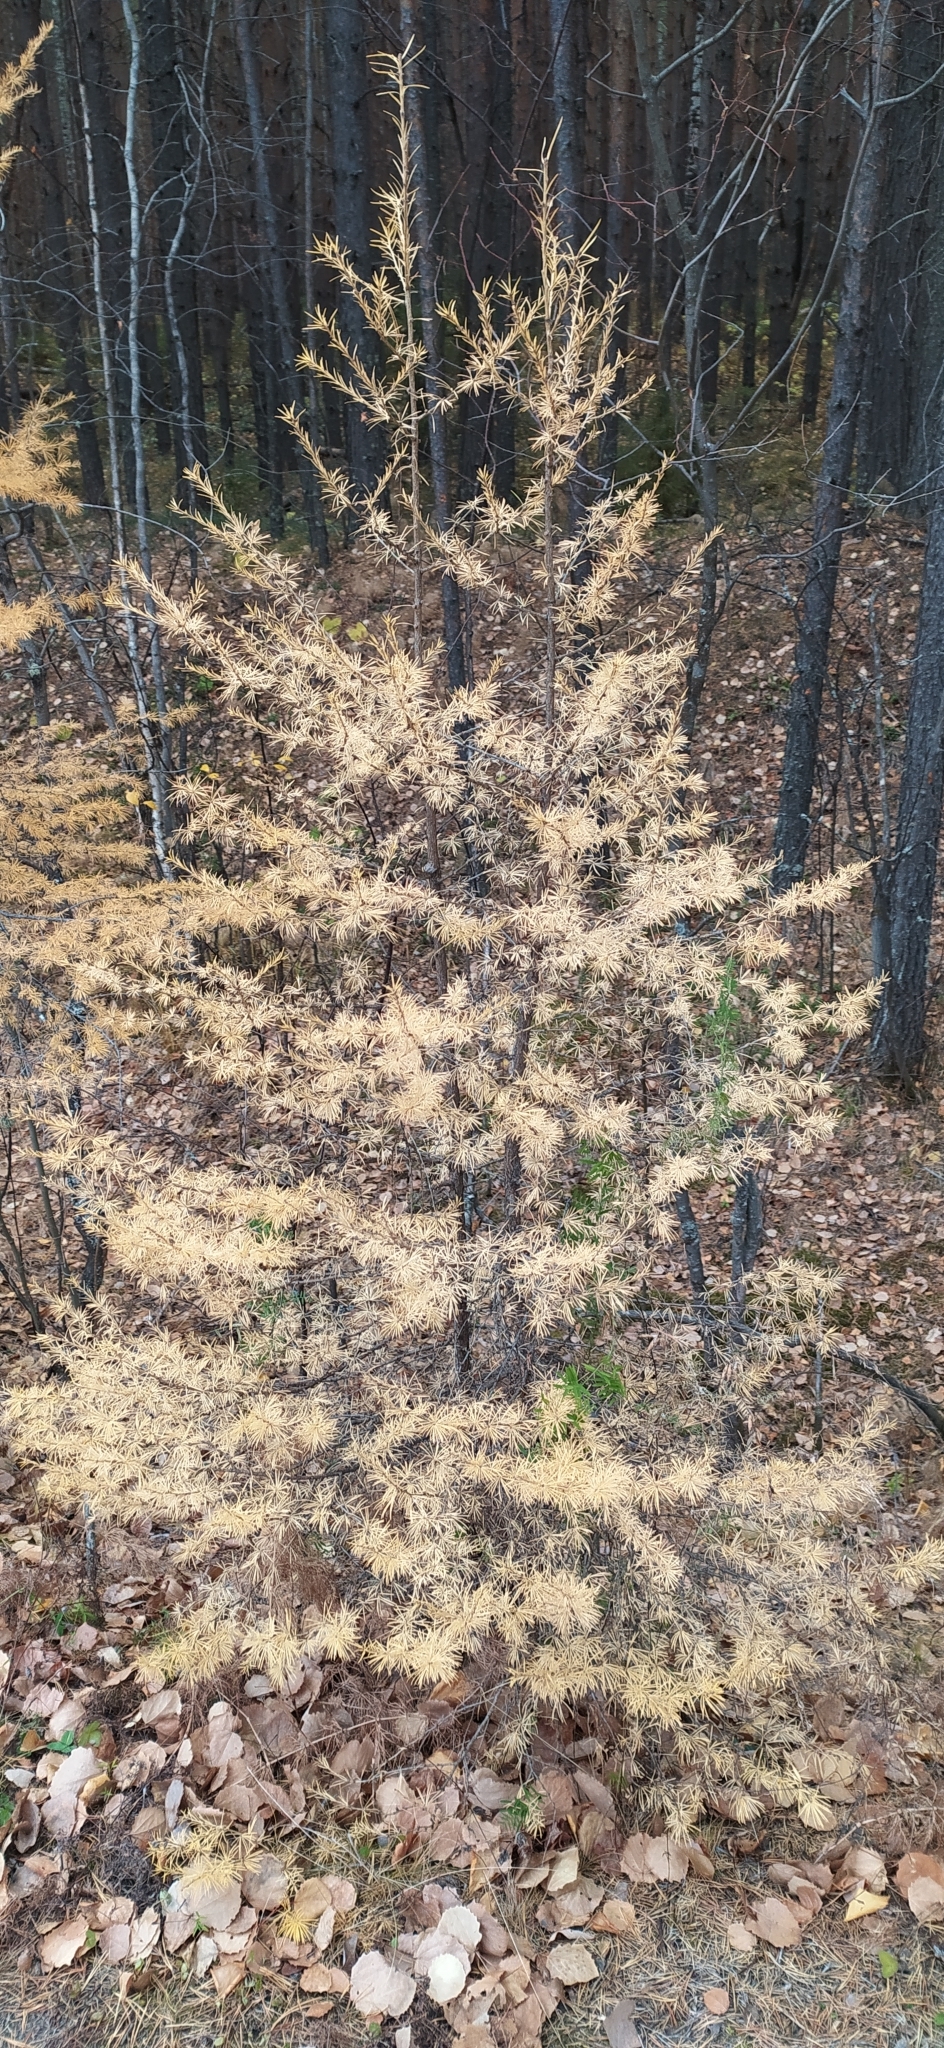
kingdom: Plantae
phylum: Tracheophyta
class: Pinopsida
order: Pinales
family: Pinaceae
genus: Larix
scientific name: Larix sibirica
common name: Siberian larch
